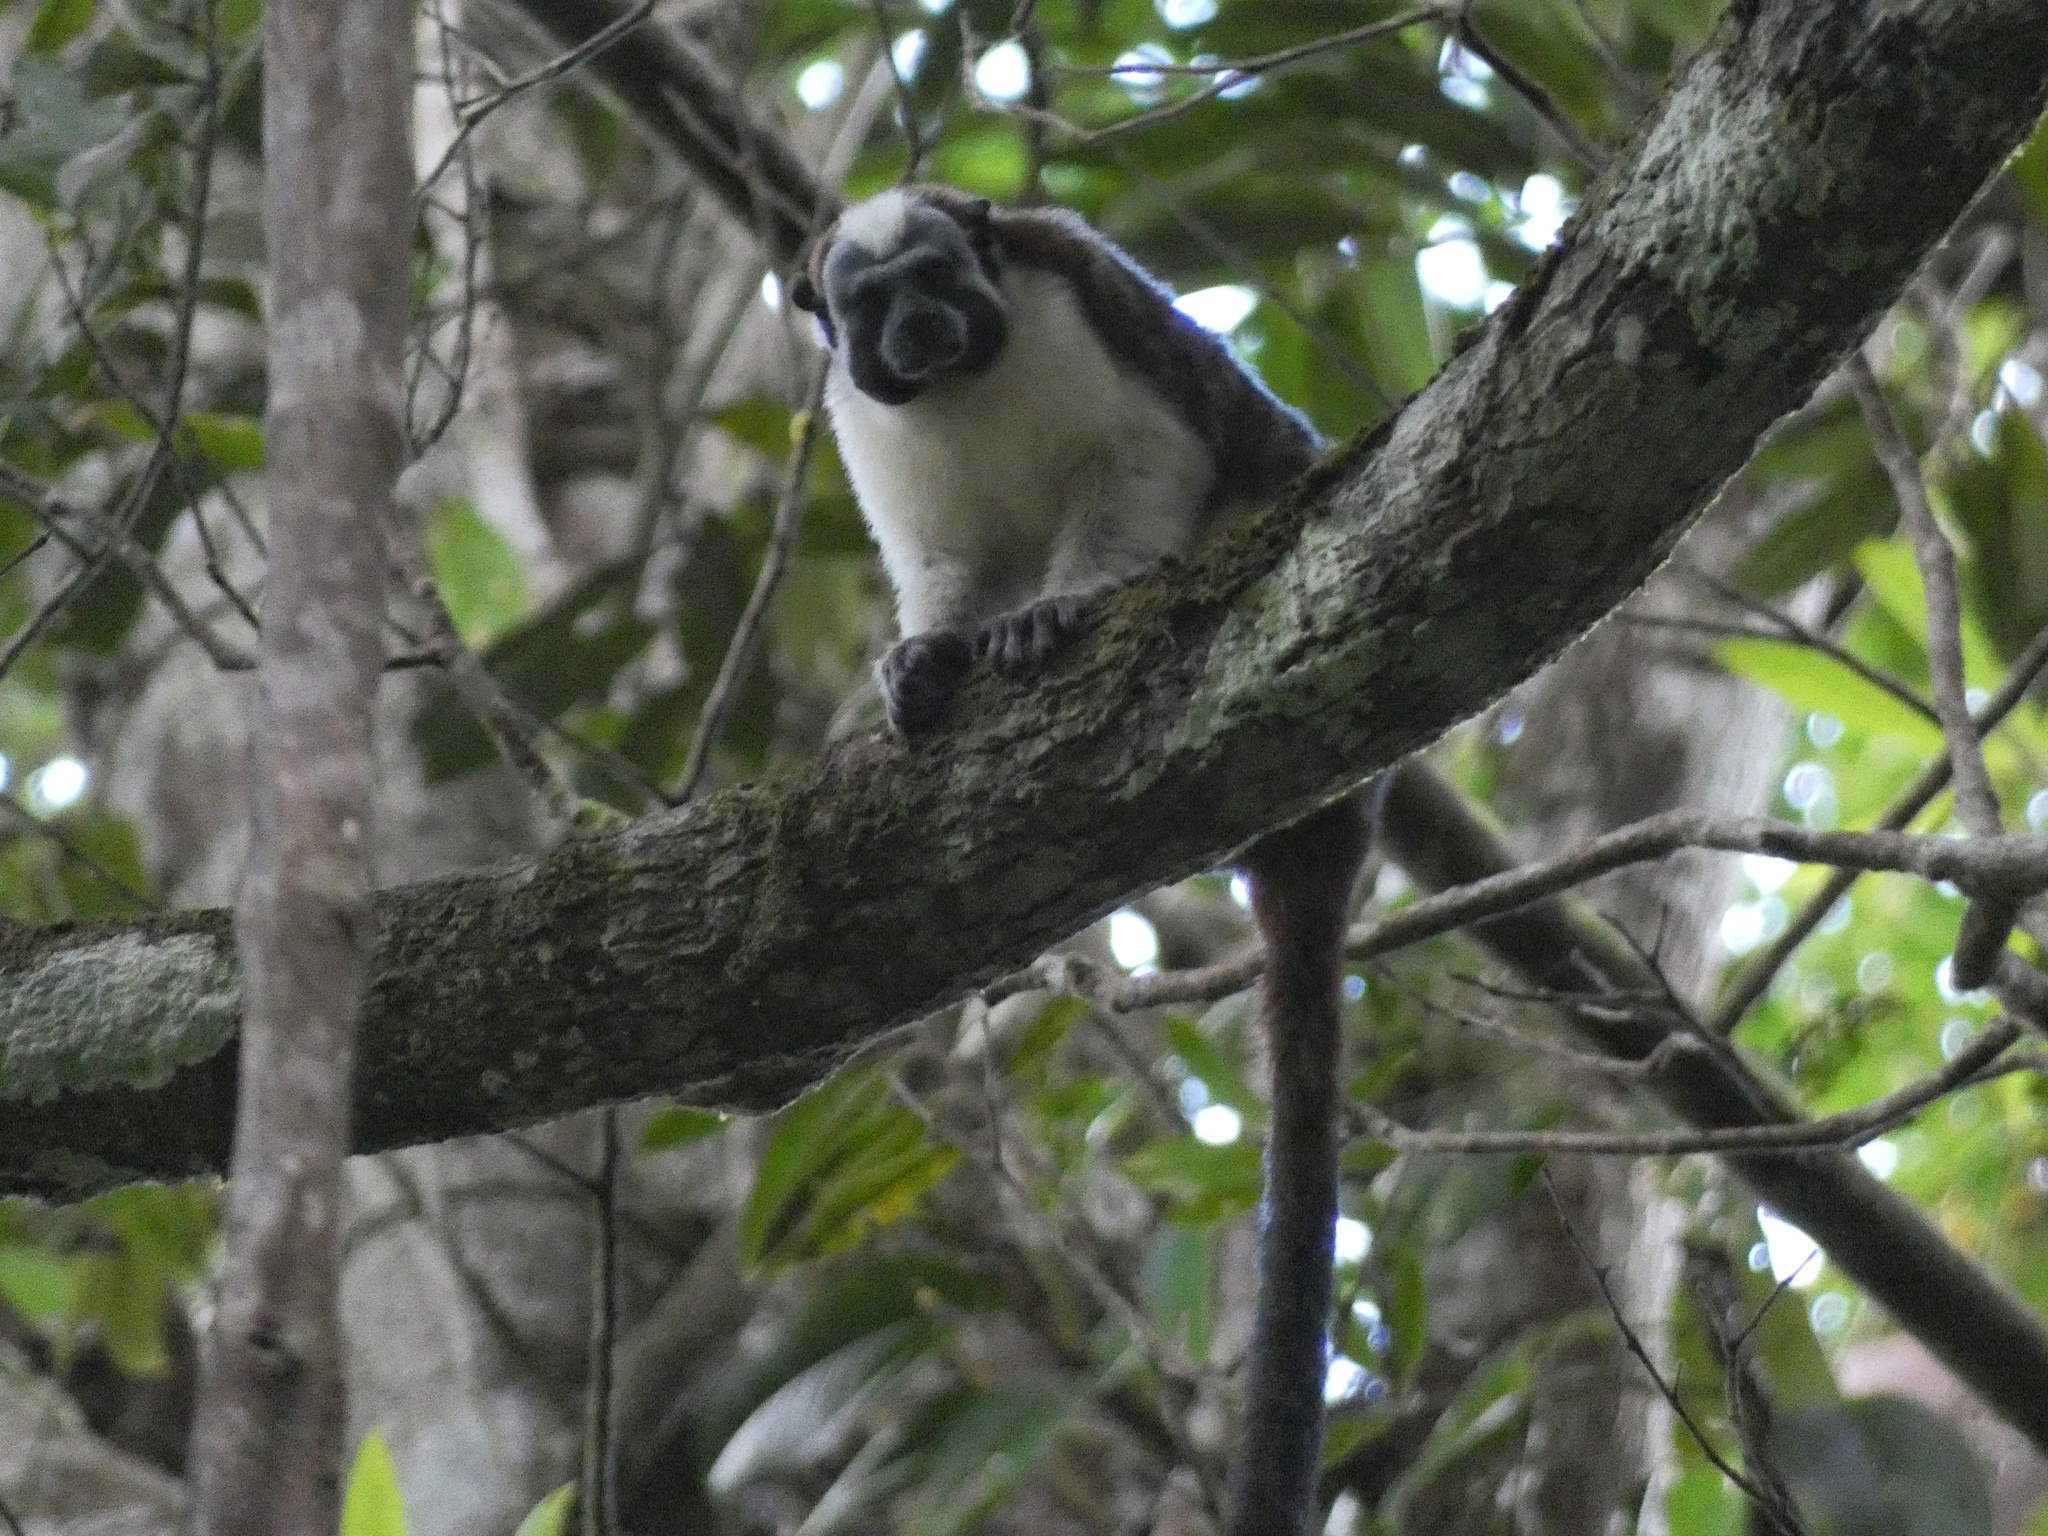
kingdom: Animalia
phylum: Chordata
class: Mammalia
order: Primates
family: Callitrichidae
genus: Saguinus
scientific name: Saguinus geoffroyi
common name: Geoffroy s tamarin
